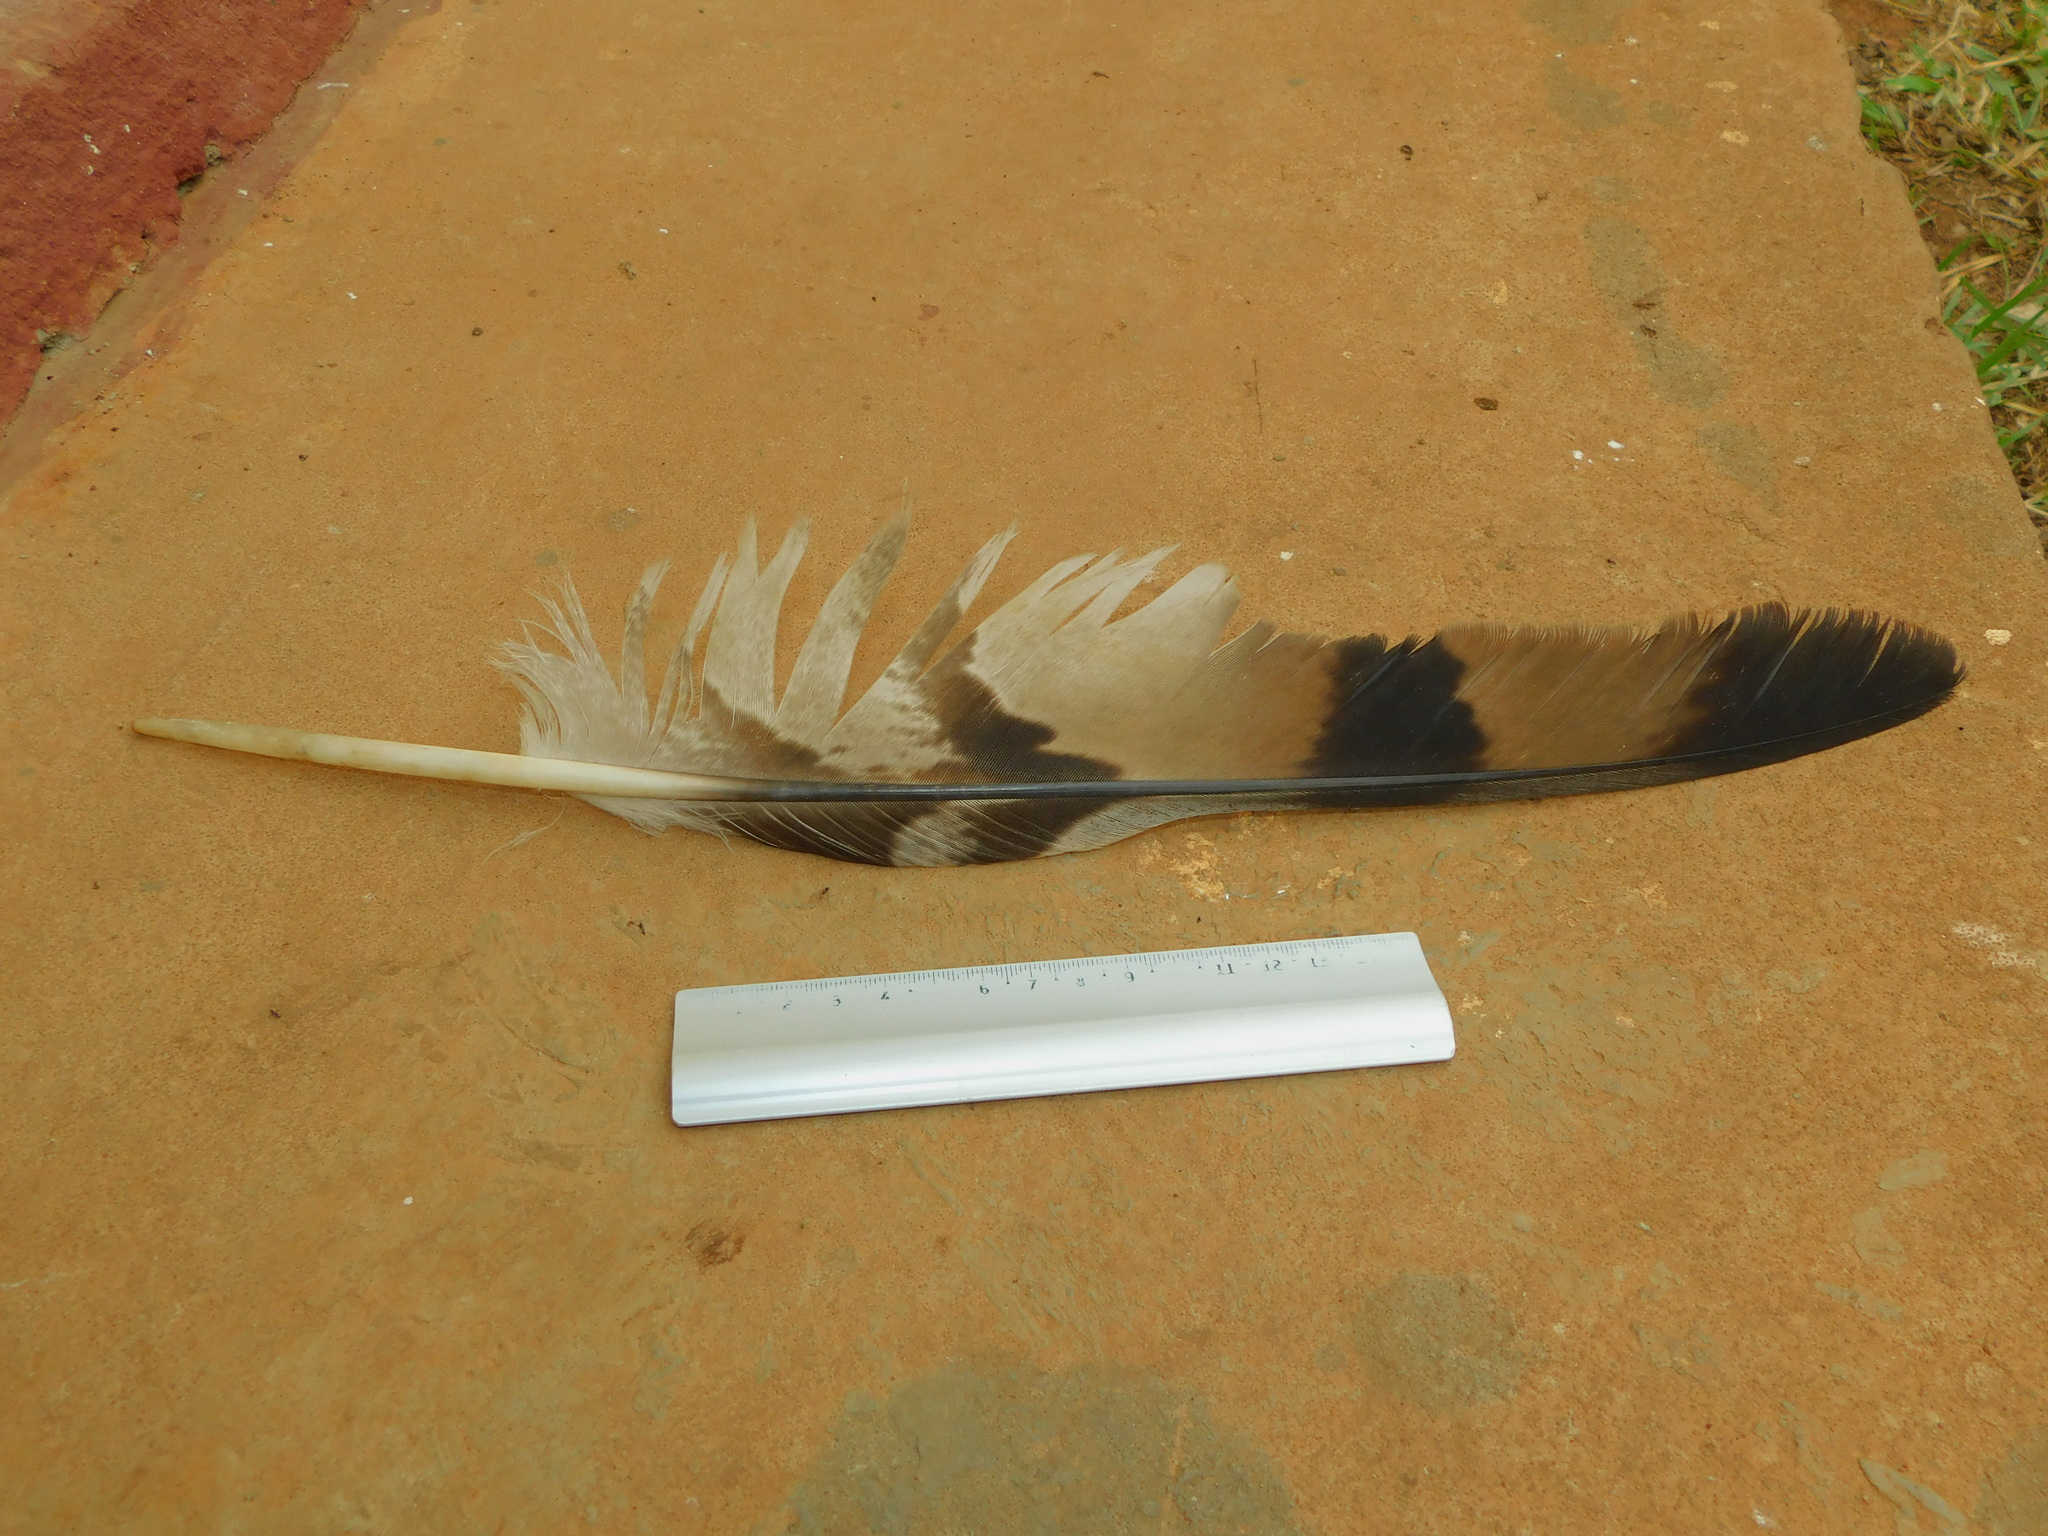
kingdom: Animalia
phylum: Chordata
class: Aves
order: Accipitriformes
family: Accipitridae
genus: Stephanoaetus
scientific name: Stephanoaetus coronatus
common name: Crowned eagle
